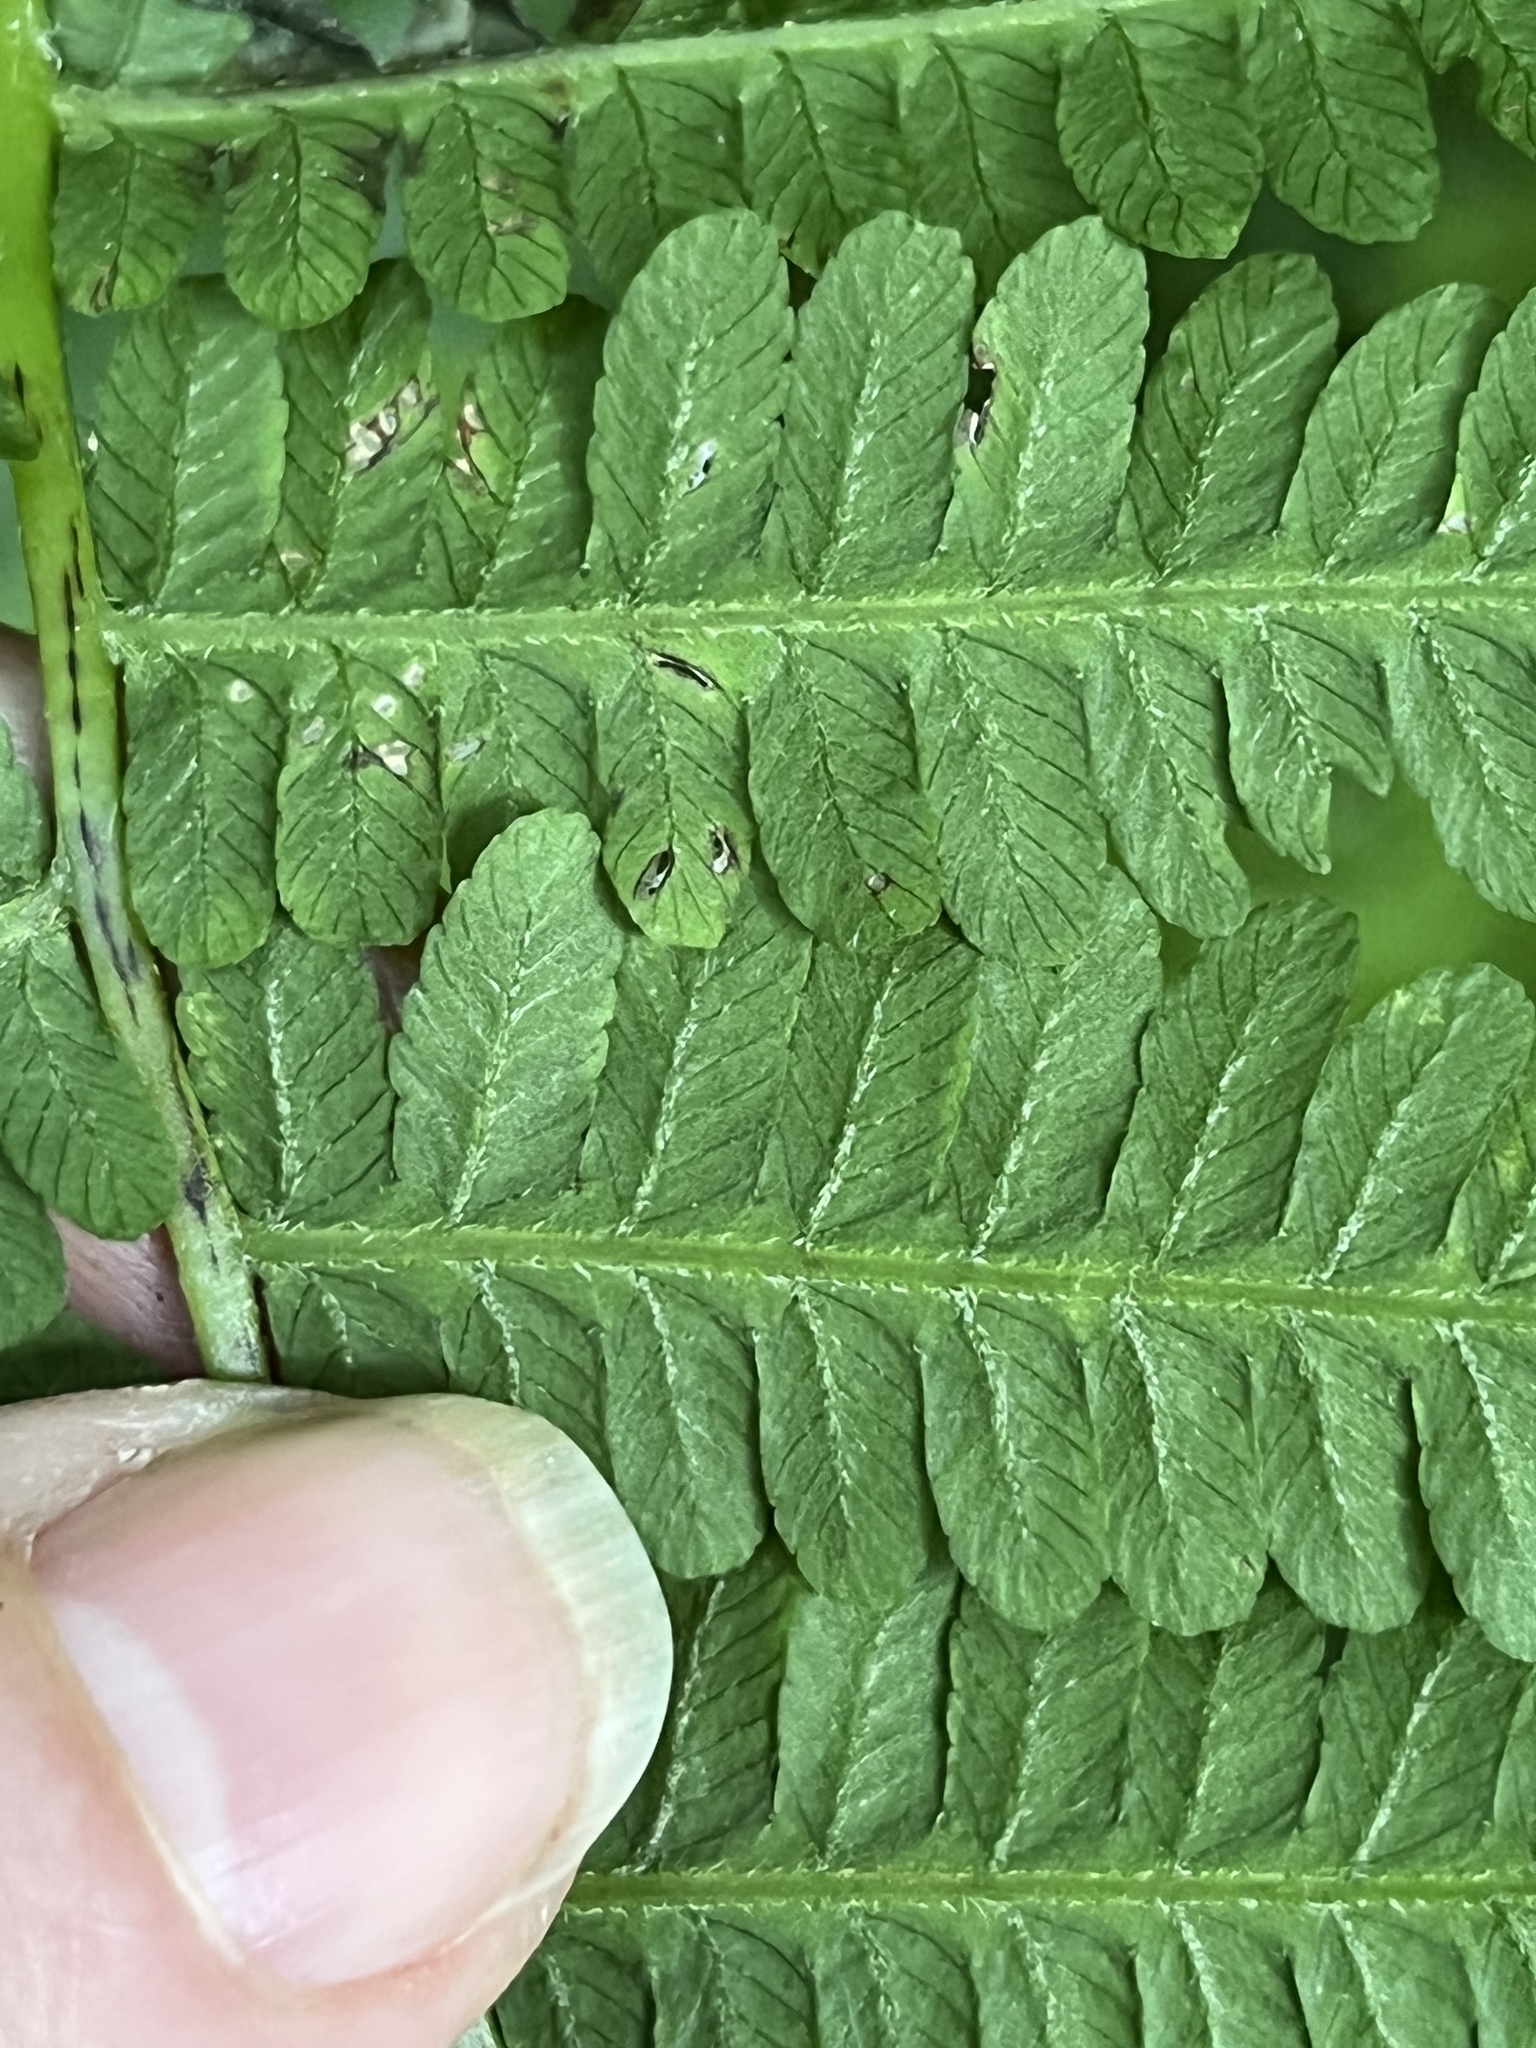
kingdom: Plantae
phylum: Tracheophyta
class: Polypodiopsida
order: Polypodiales
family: Athyriaceae
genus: Deparia
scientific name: Deparia acrostichoides
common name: Silver false spleenwort
